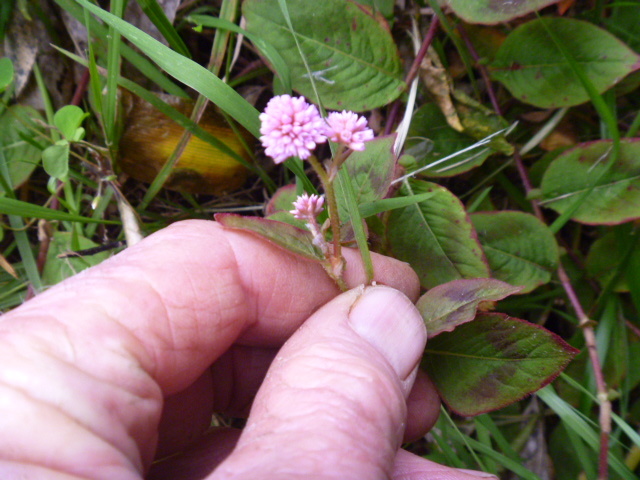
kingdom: Plantae
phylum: Tracheophyta
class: Magnoliopsida
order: Caryophyllales
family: Polygonaceae
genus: Persicaria
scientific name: Persicaria capitata
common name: Pinkhead smartweed
